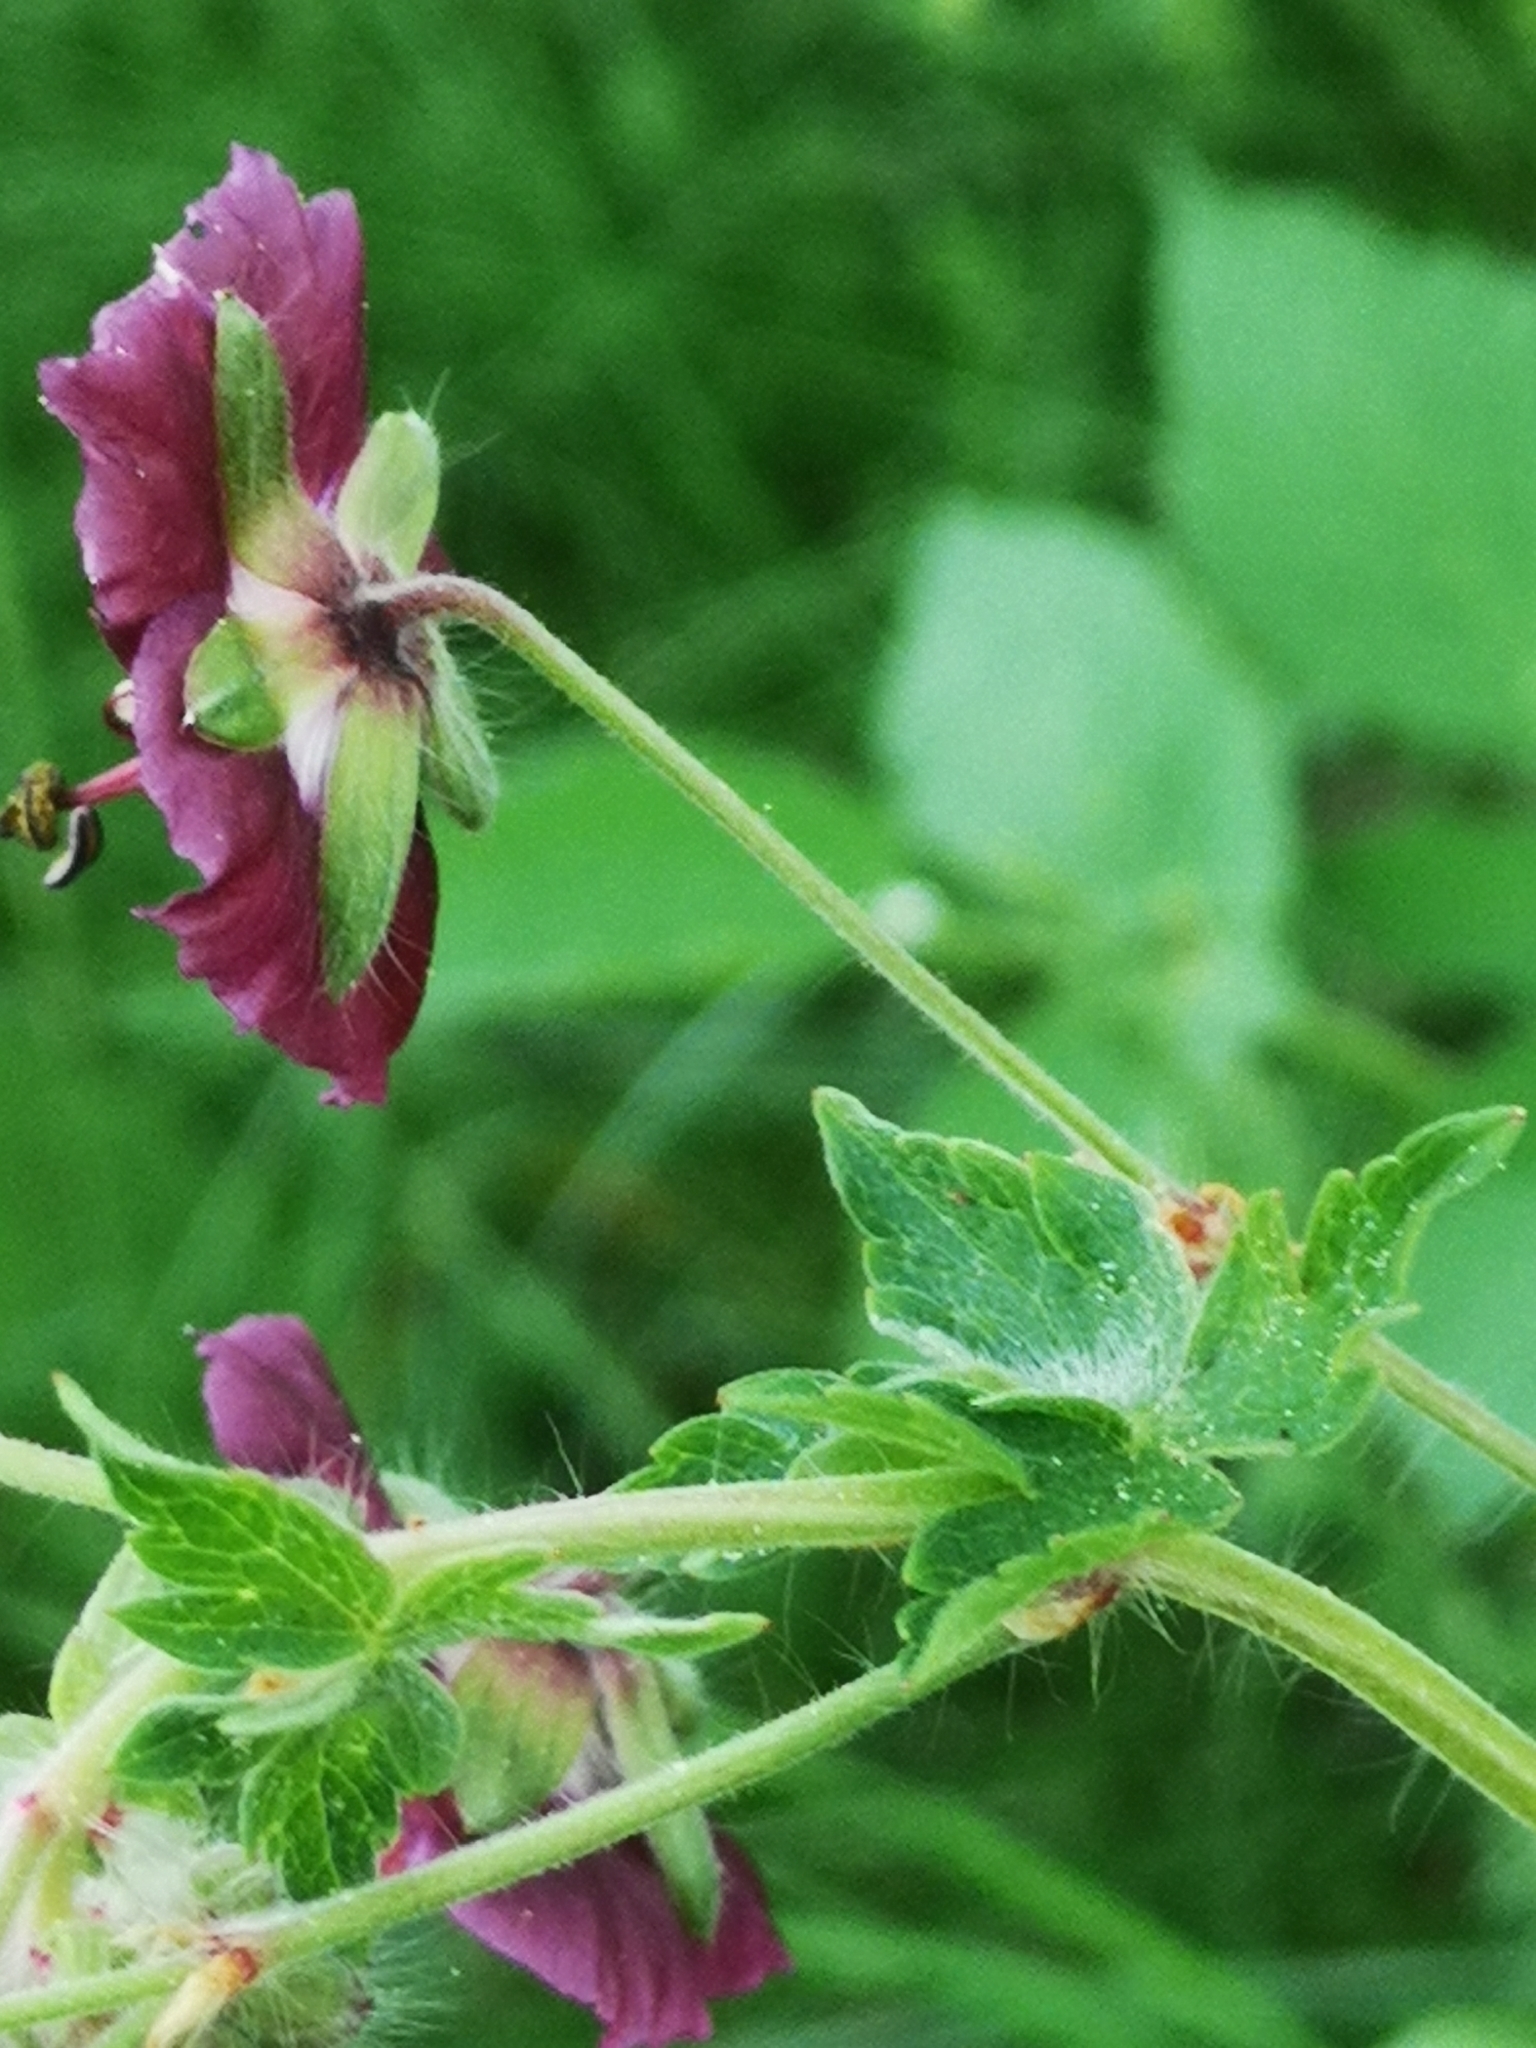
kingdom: Plantae
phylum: Tracheophyta
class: Magnoliopsida
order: Geraniales
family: Geraniaceae
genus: Geranium
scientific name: Geranium phaeum
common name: Dusky crane's-bill
